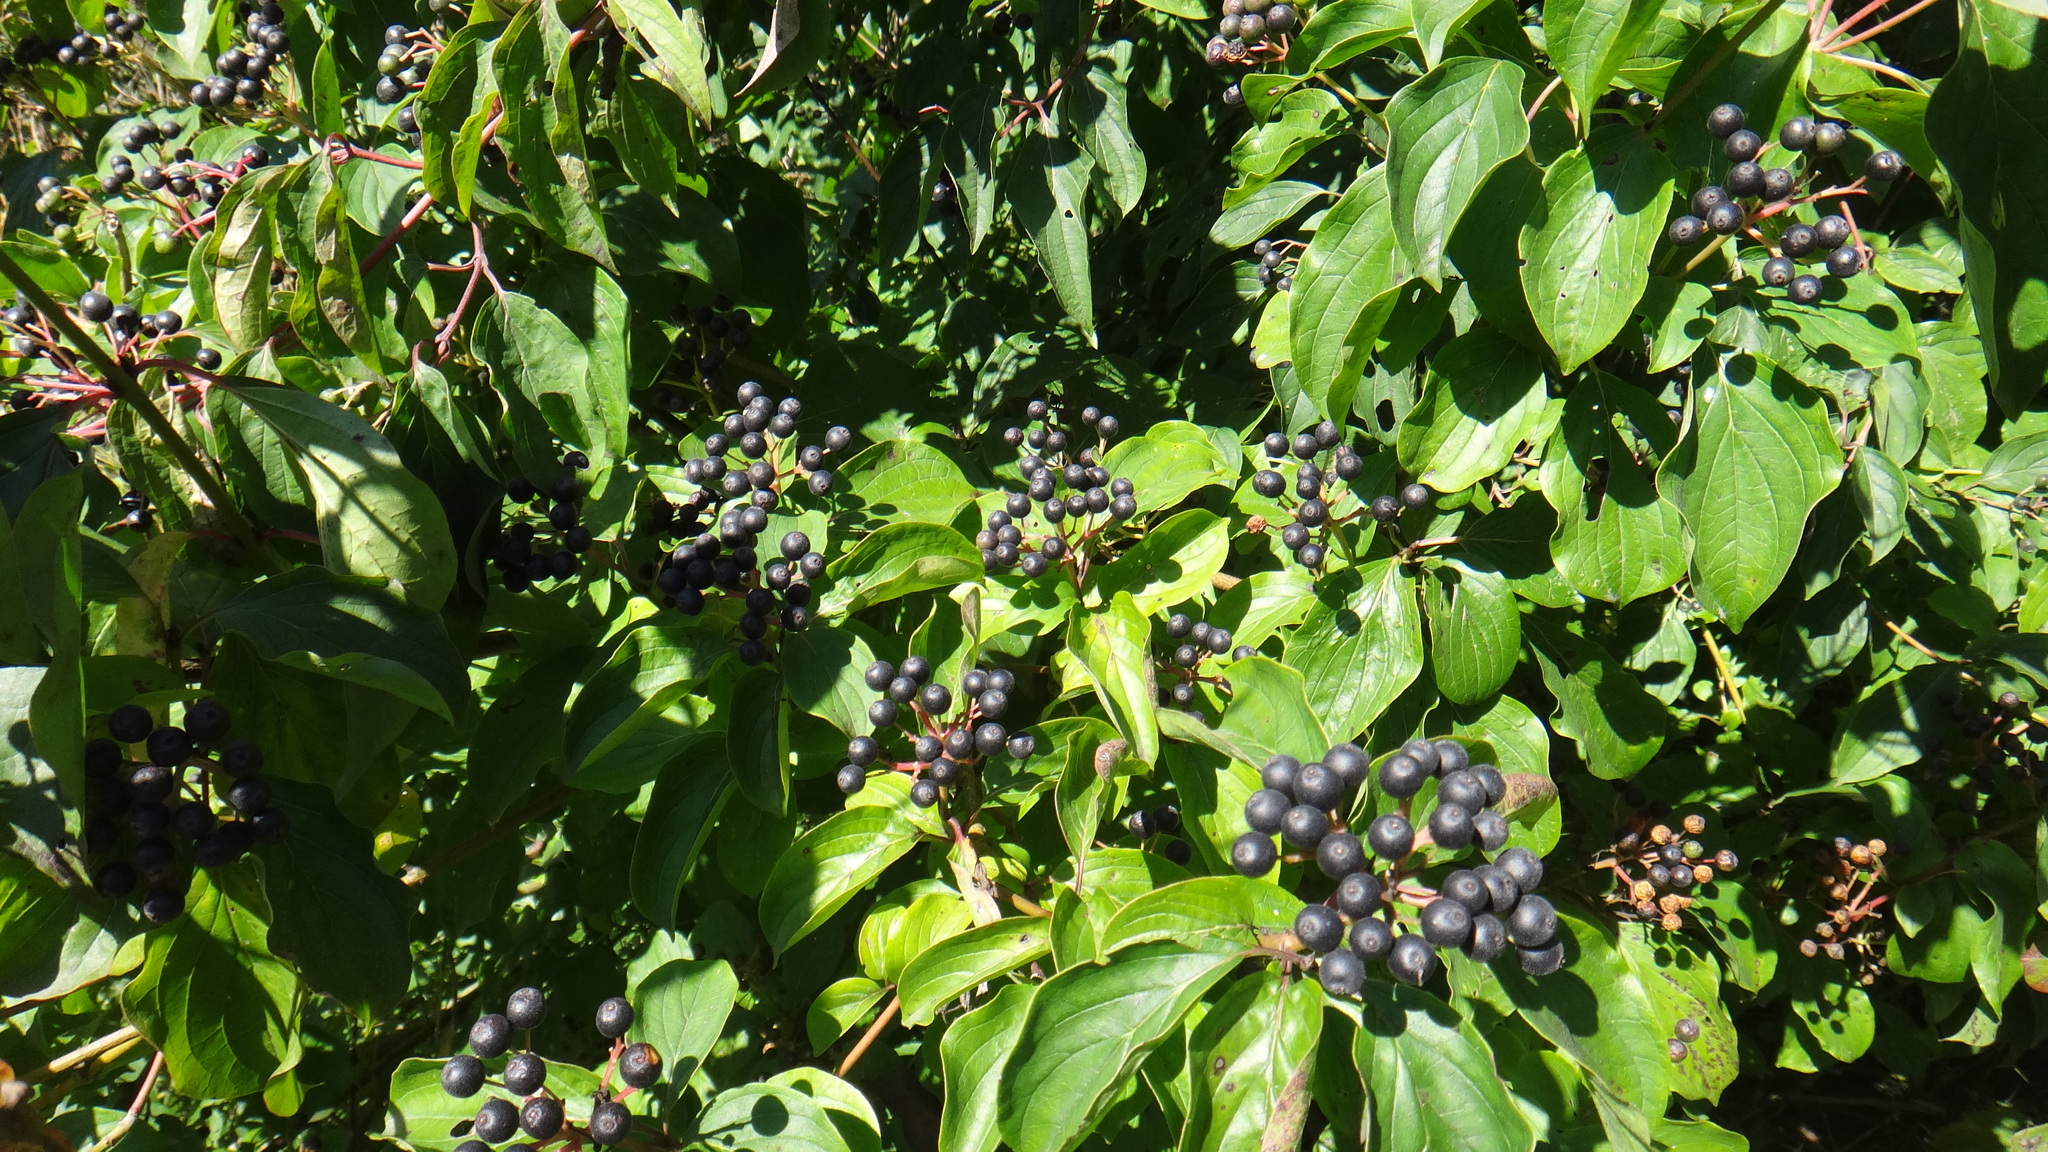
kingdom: Plantae
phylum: Tracheophyta
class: Magnoliopsida
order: Cornales
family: Cornaceae
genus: Cornus
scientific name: Cornus sanguinea
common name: Dogwood
